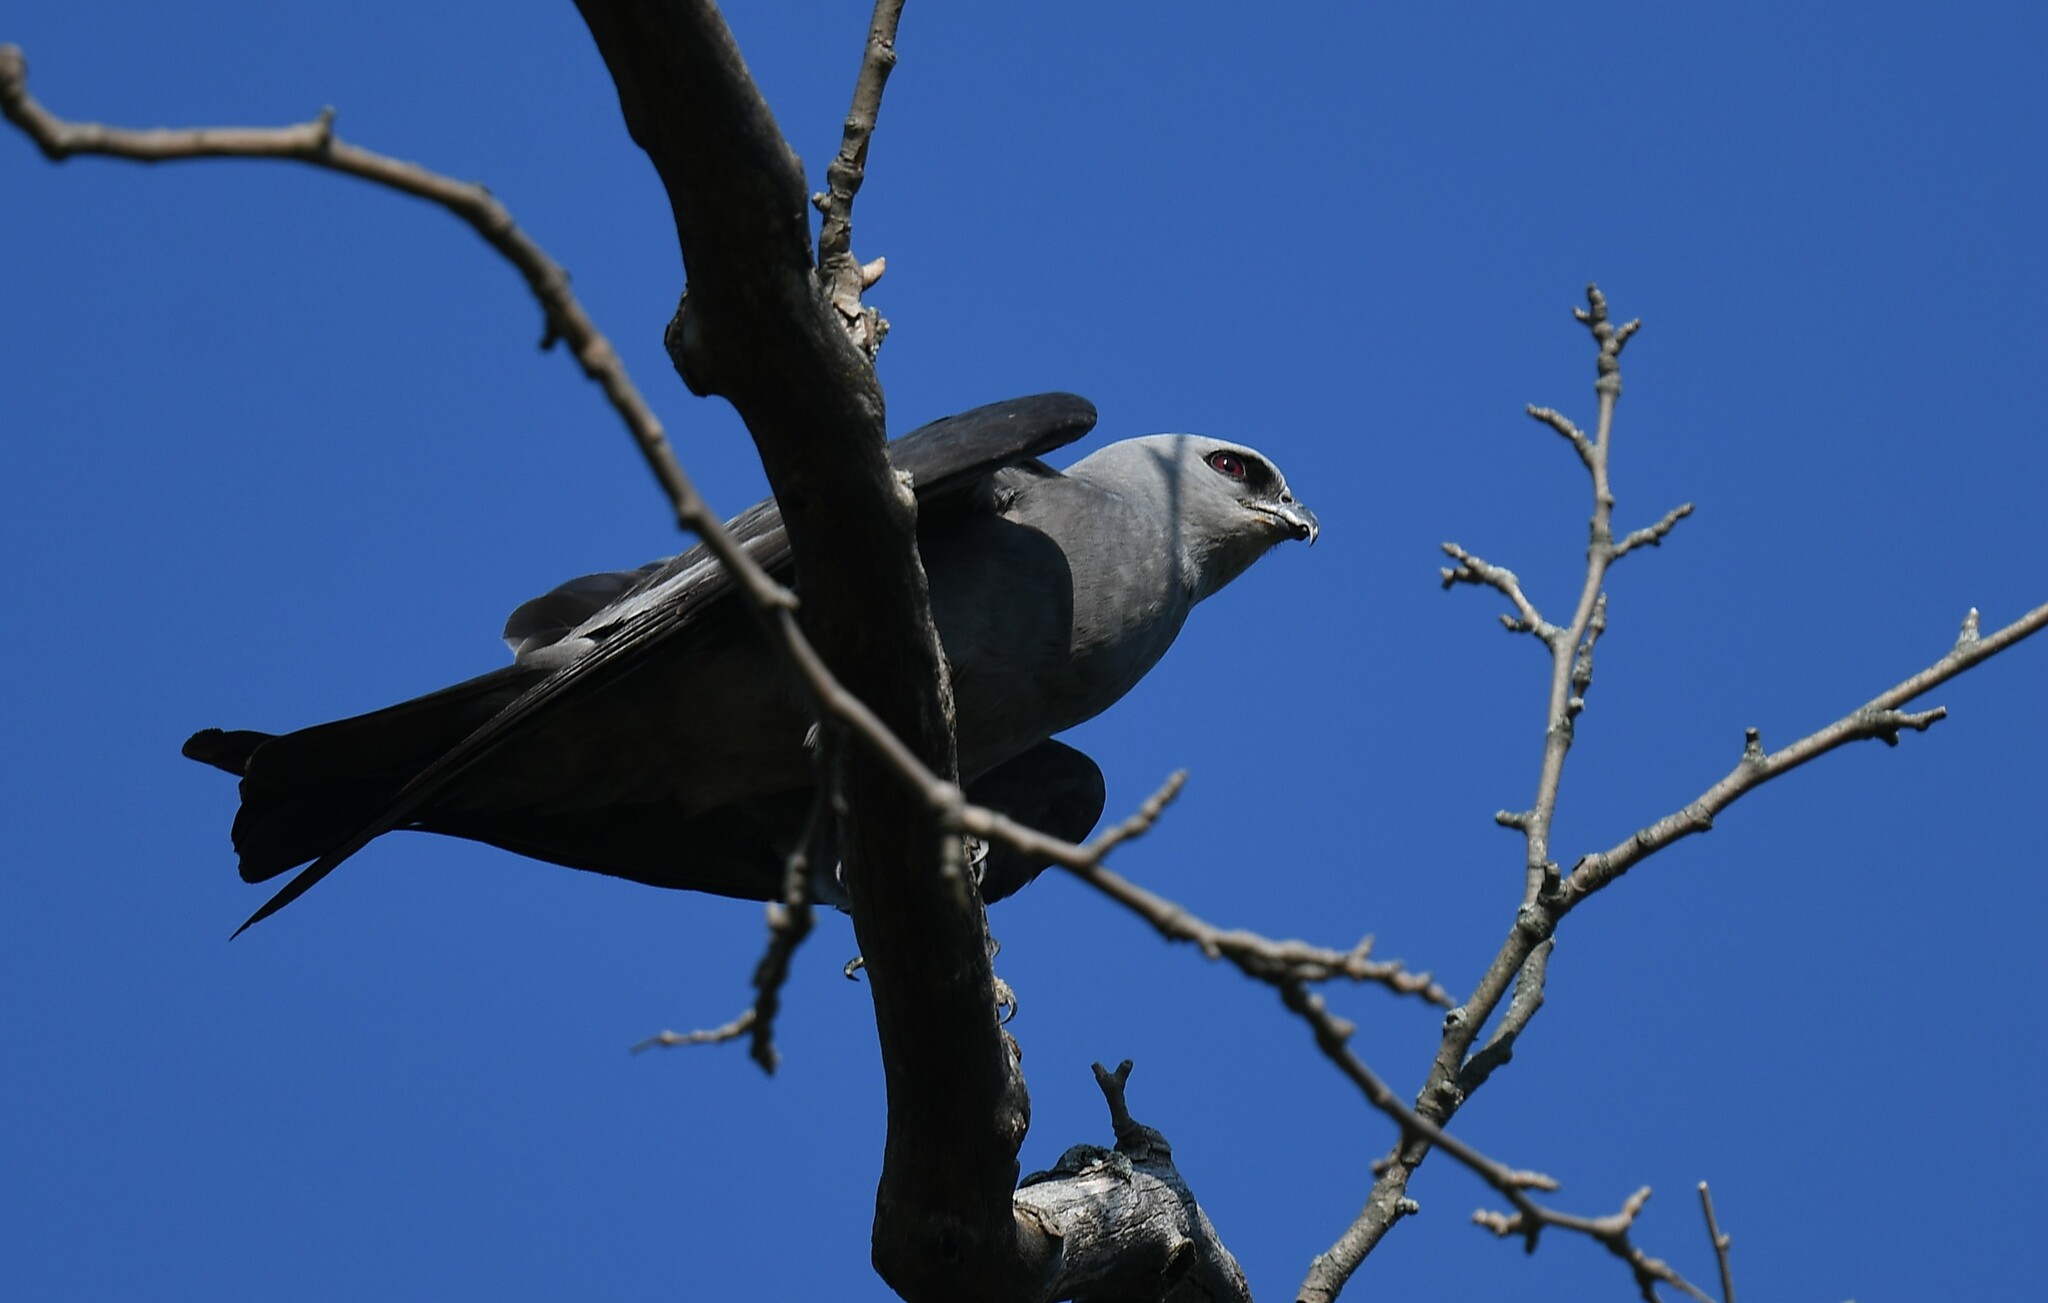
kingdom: Animalia
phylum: Chordata
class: Aves
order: Accipitriformes
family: Accipitridae
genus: Ictinia
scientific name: Ictinia mississippiensis
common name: Mississippi kite
